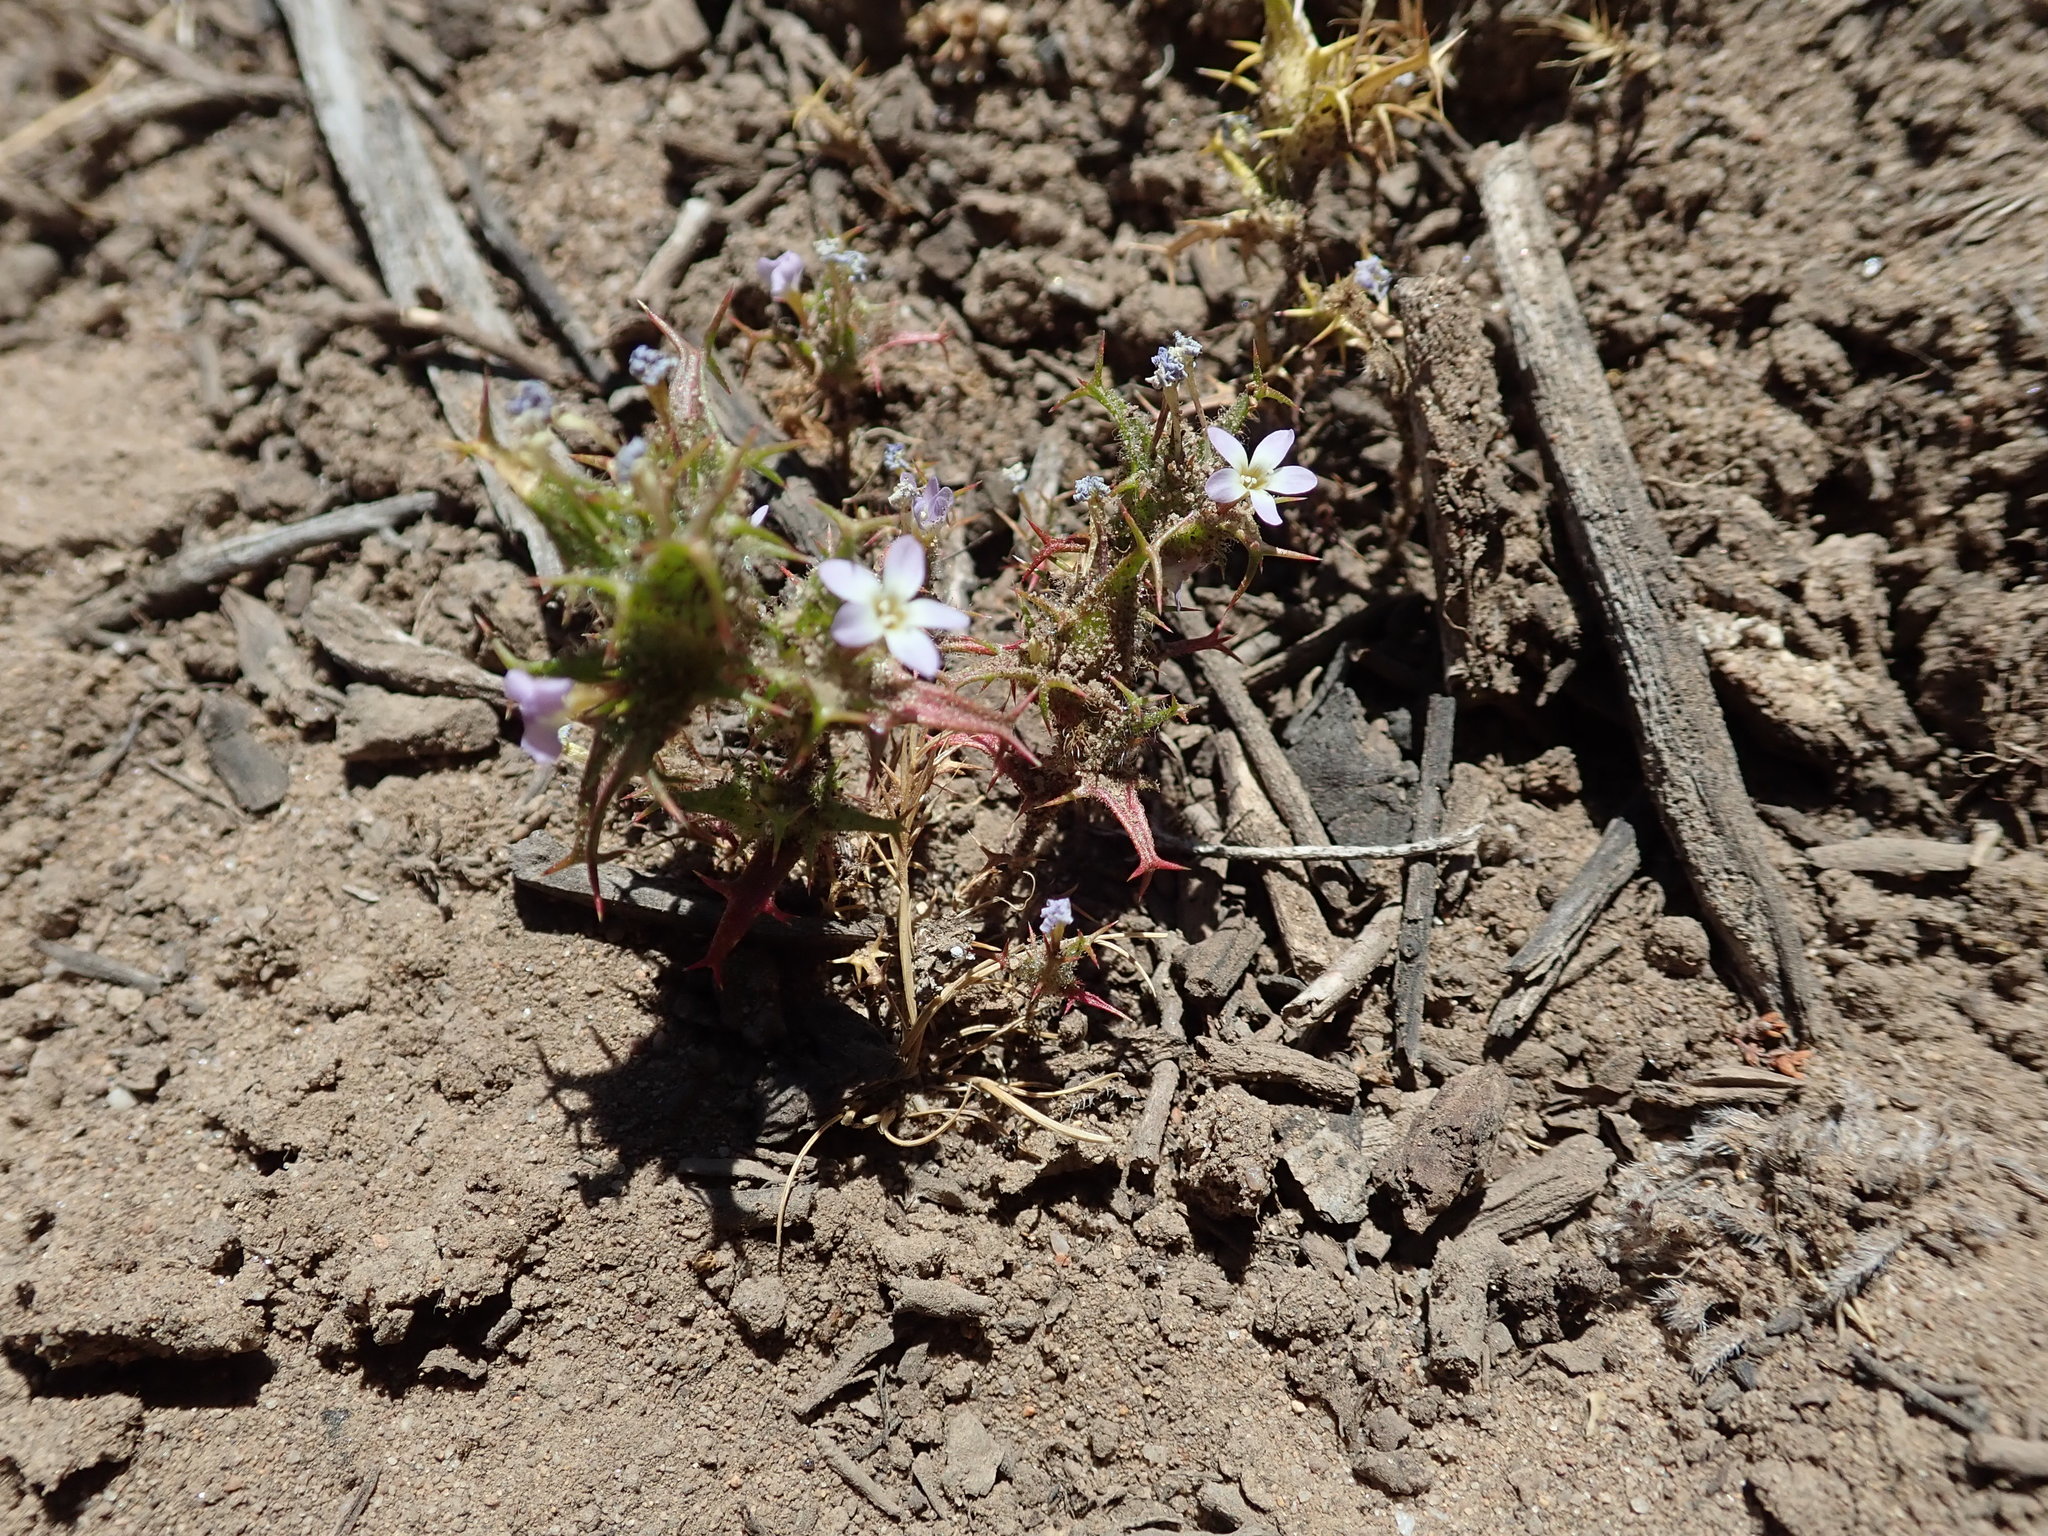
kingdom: Plantae
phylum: Tracheophyta
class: Magnoliopsida
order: Ericales
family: Polemoniaceae
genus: Navarretia
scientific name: Navarretia hamata
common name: Hooked navarretia
